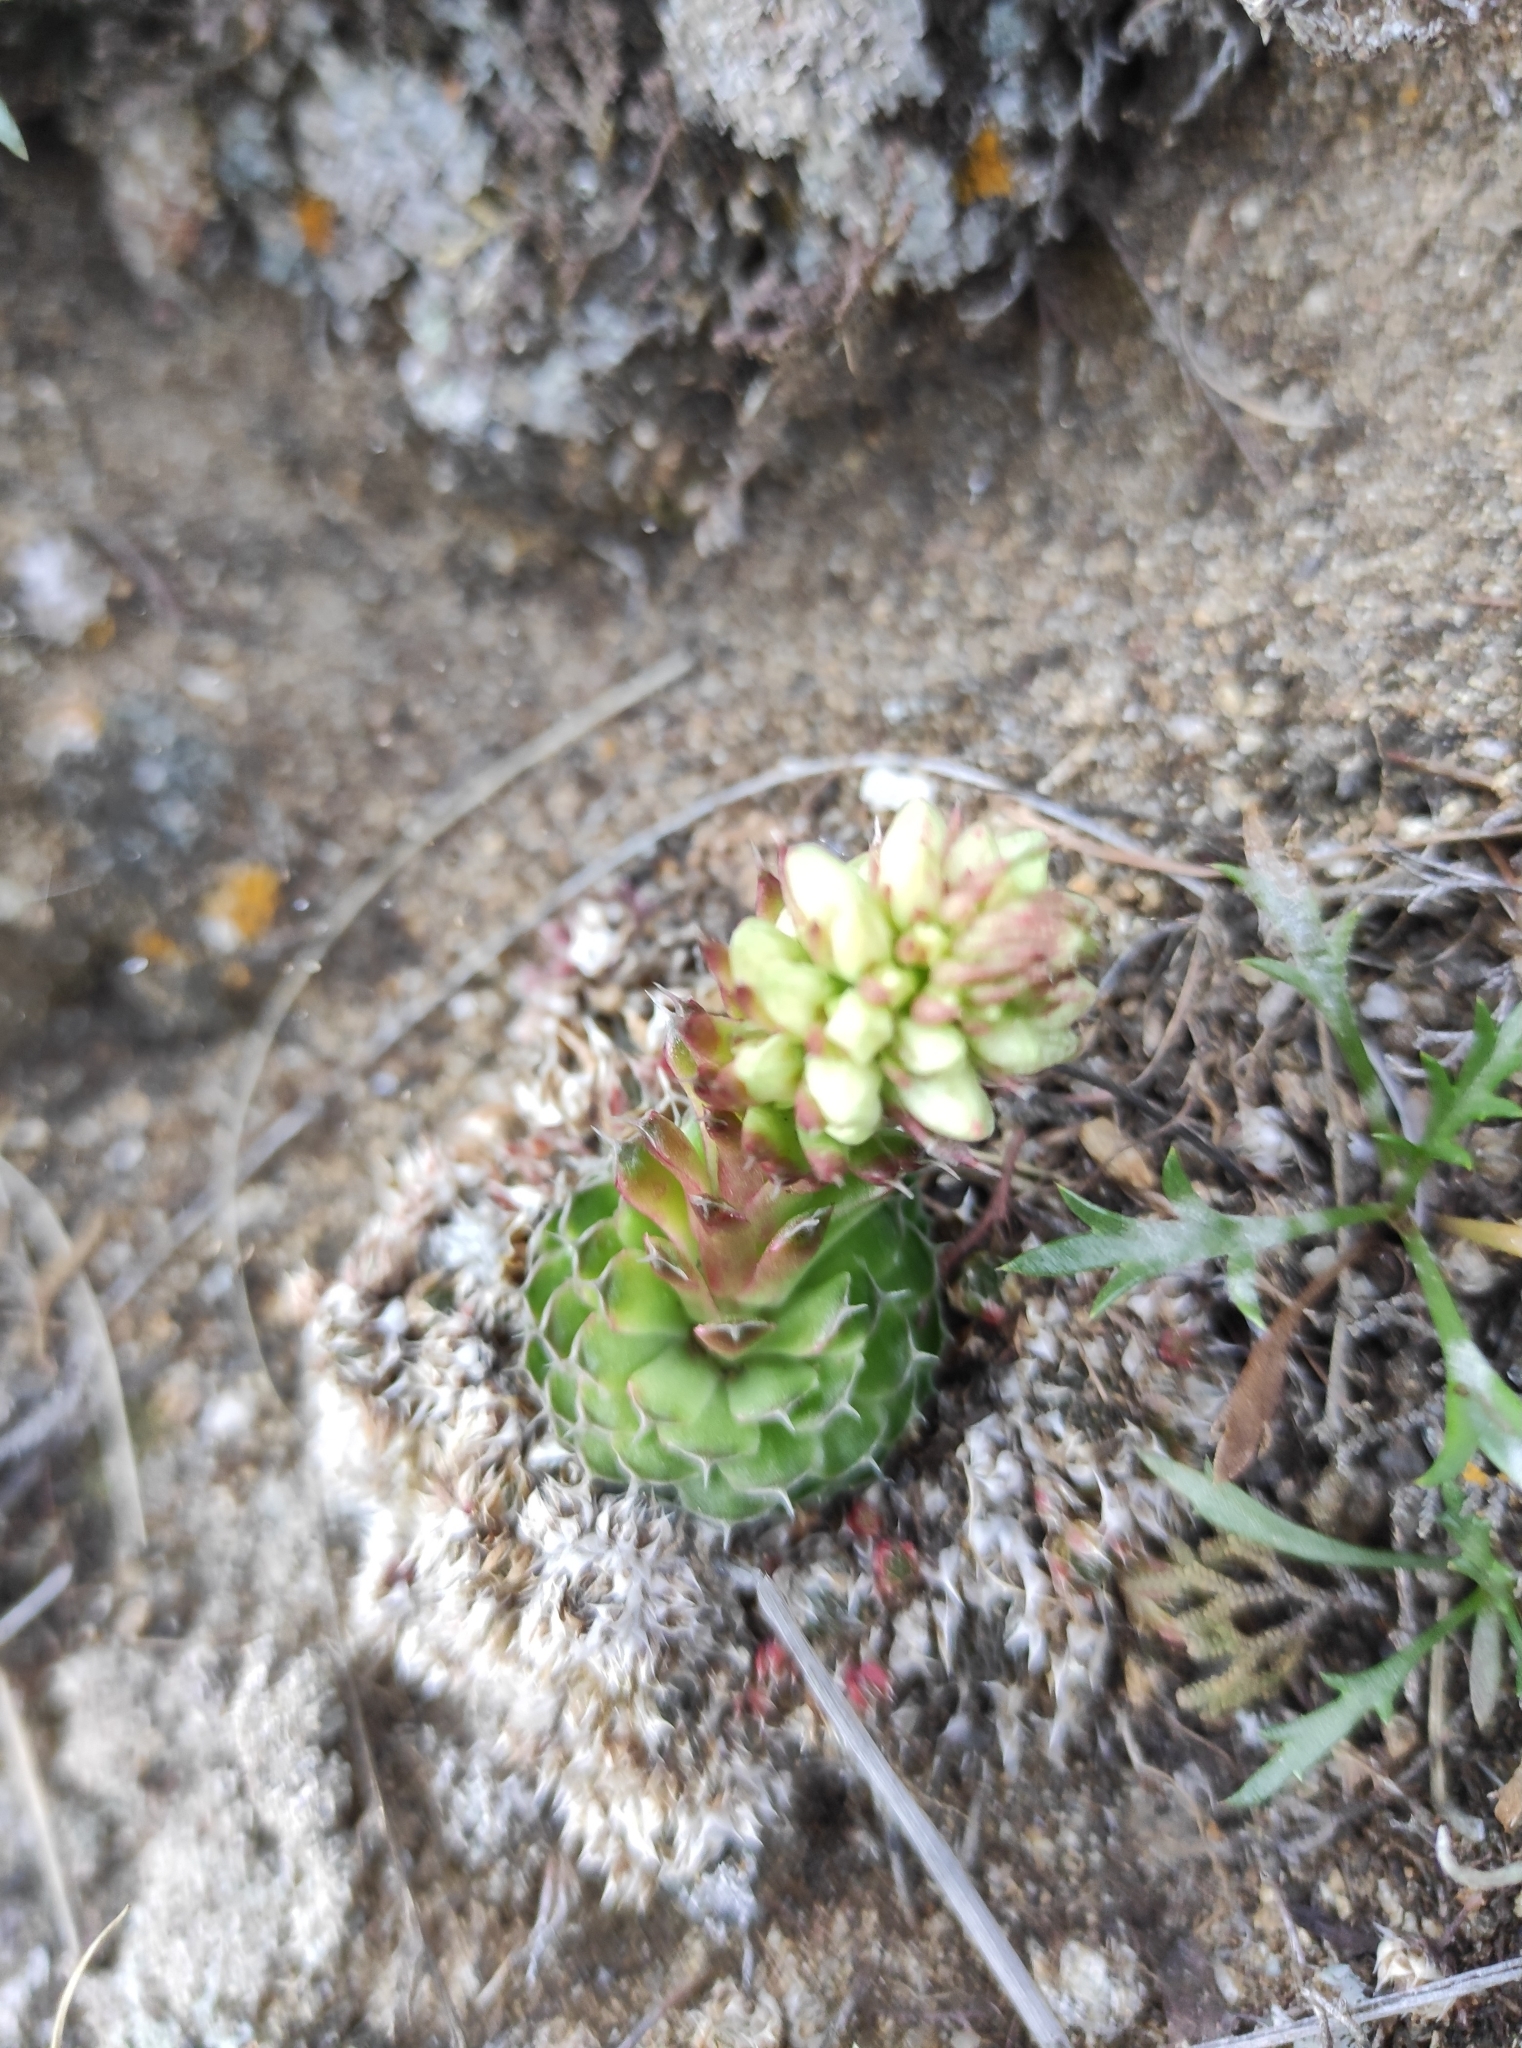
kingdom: Plantae
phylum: Tracheophyta
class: Magnoliopsida
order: Saxifragales
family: Crassulaceae
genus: Orostachys
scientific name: Orostachys spinosa
